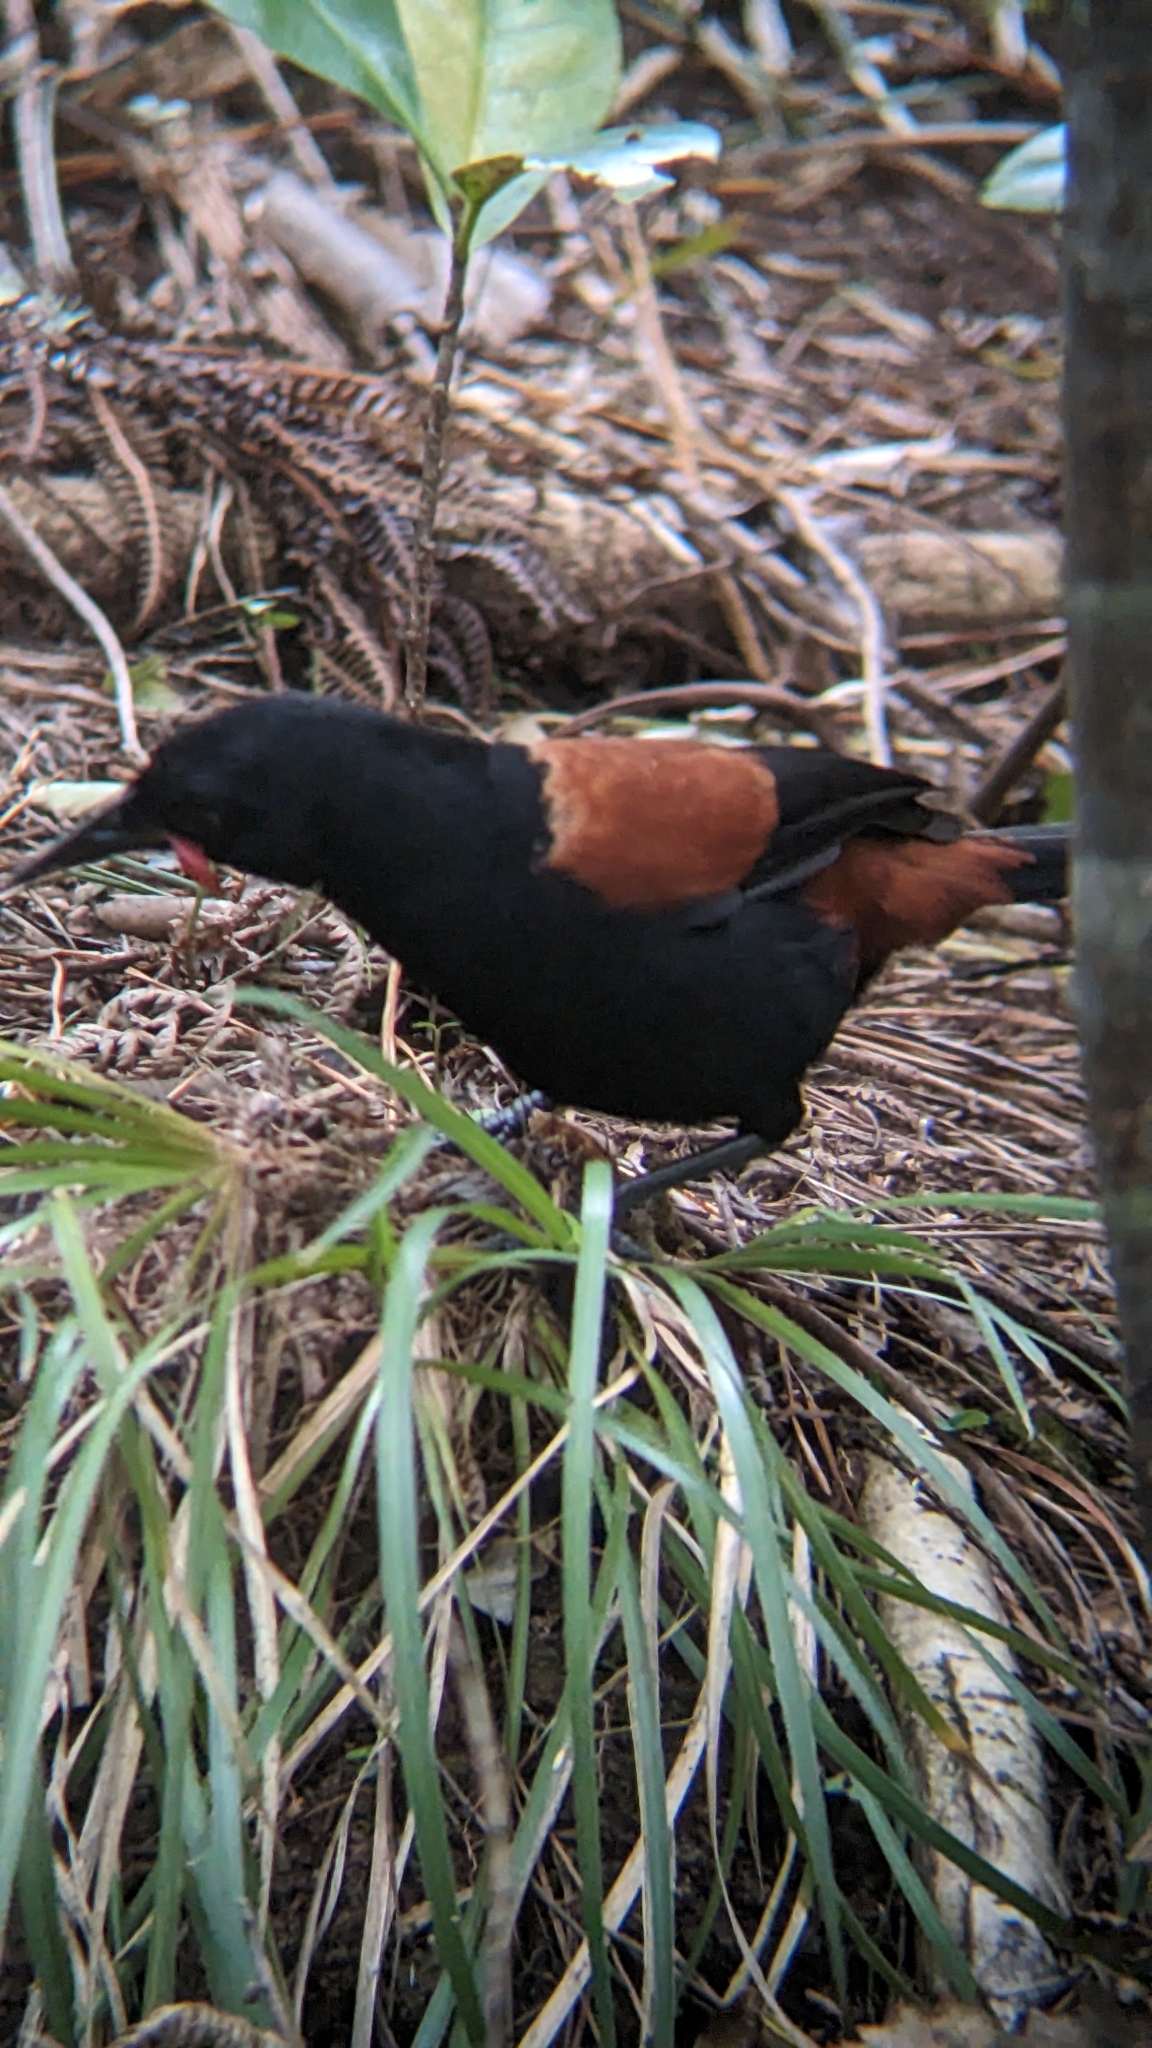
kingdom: Animalia
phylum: Chordata
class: Aves
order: Passeriformes
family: Callaeatidae
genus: Philesturnus
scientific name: Philesturnus carunculatus
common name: South island saddleback
